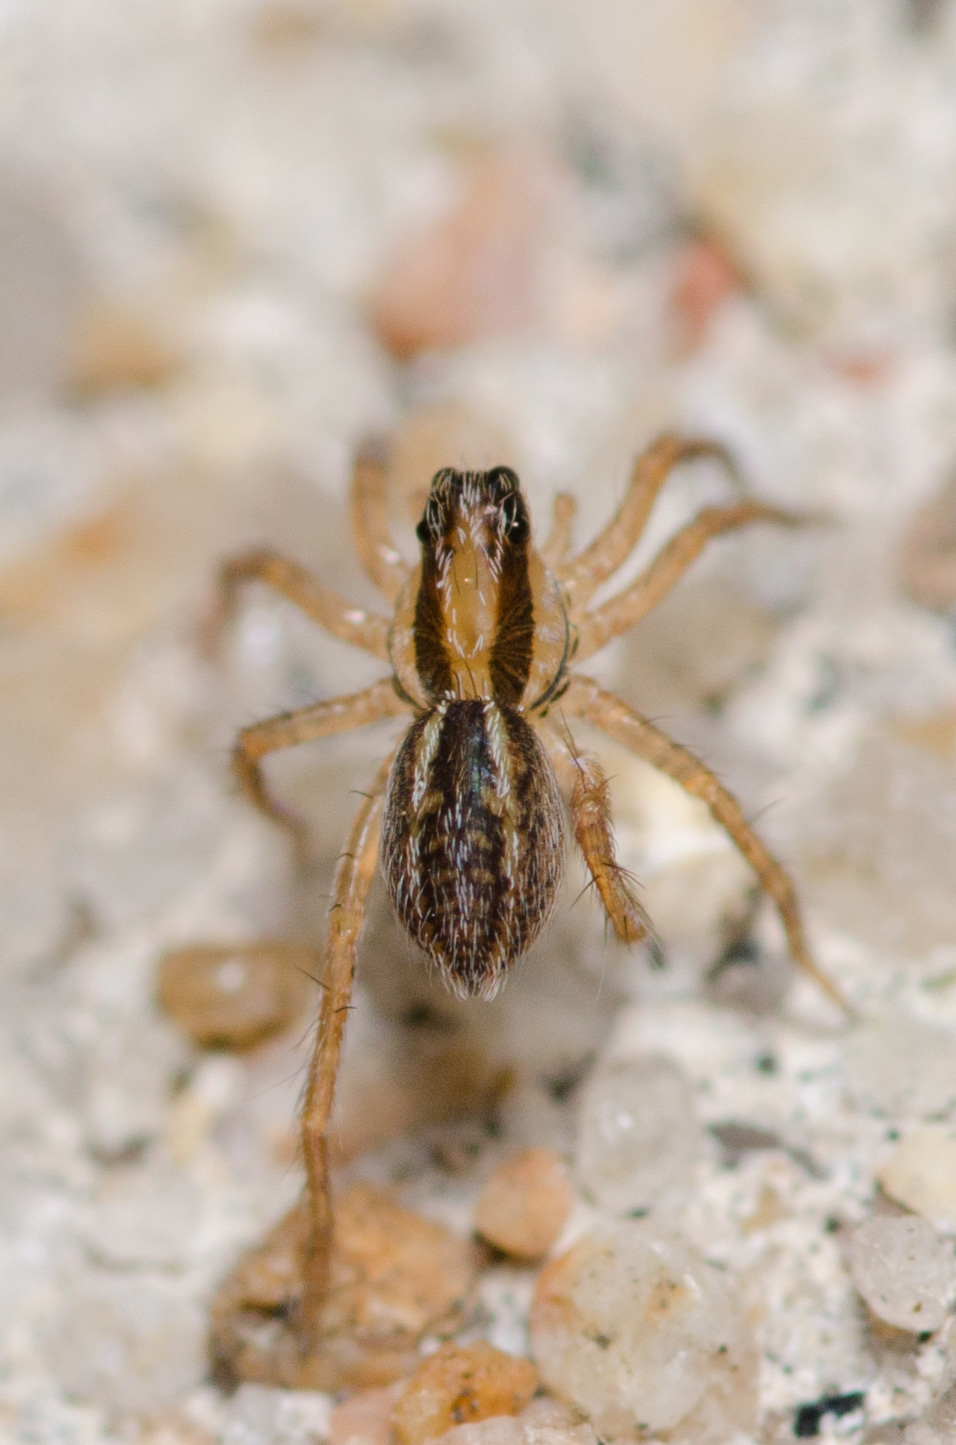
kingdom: Animalia
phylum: Arthropoda
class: Arachnida
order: Araneae
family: Lycosidae
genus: Rabidosa
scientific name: Rabidosa rabida
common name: Rabid wolf spider
